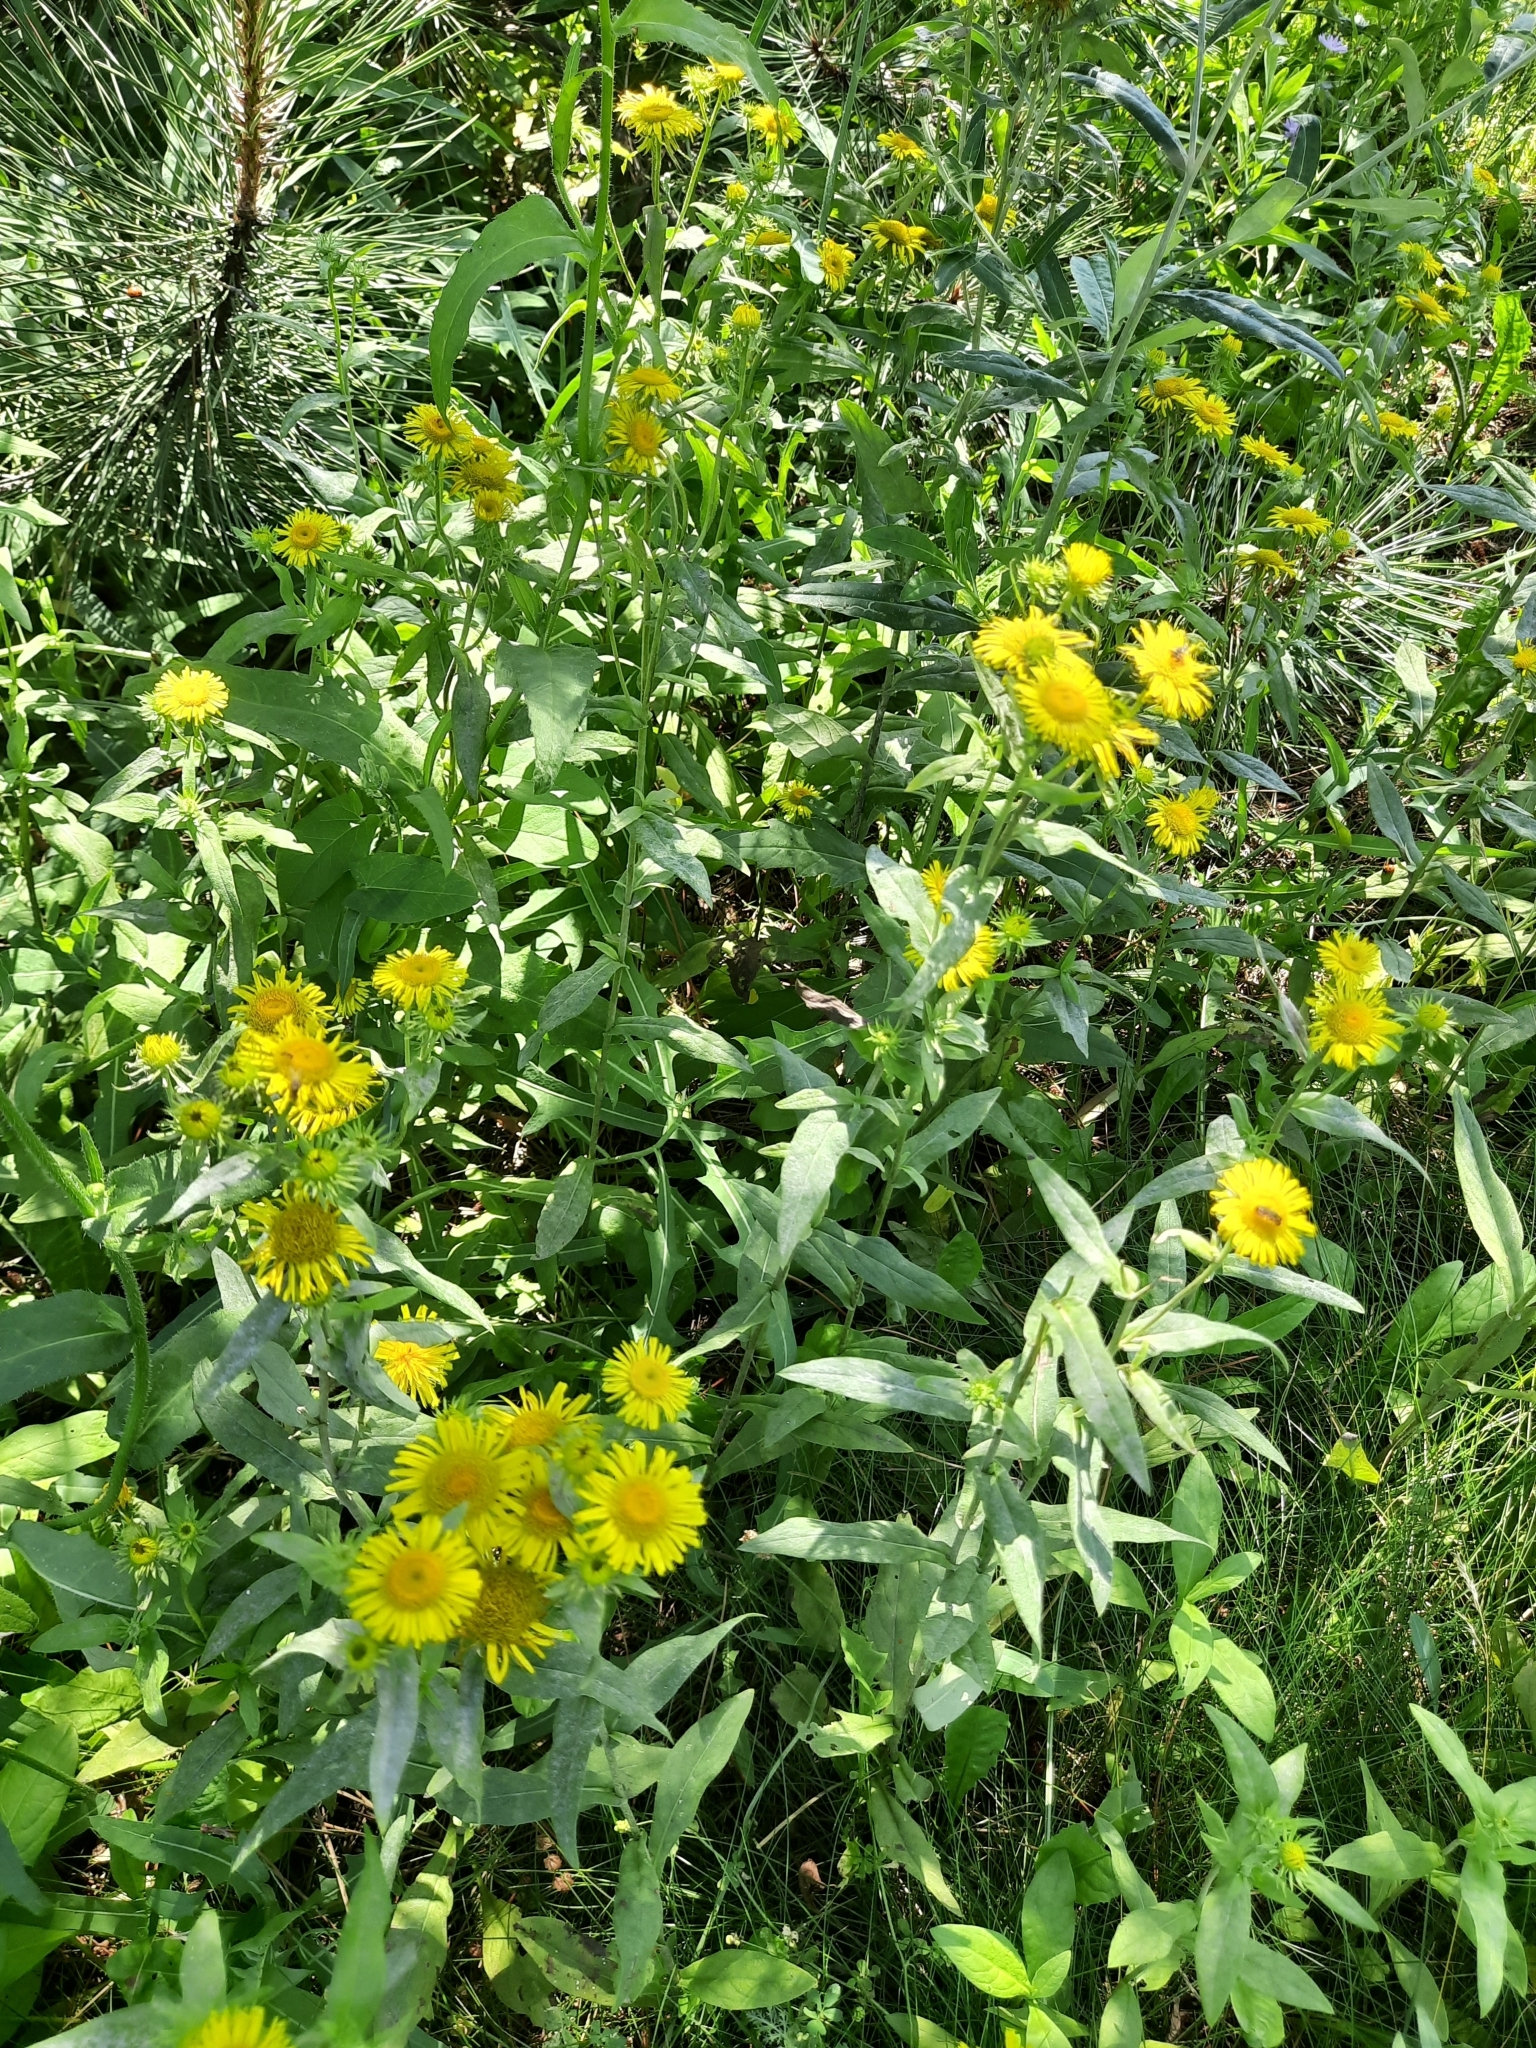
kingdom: Plantae
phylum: Tracheophyta
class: Magnoliopsida
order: Asterales
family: Asteraceae
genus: Pentanema
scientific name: Pentanema britannicum
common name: British elecampane
